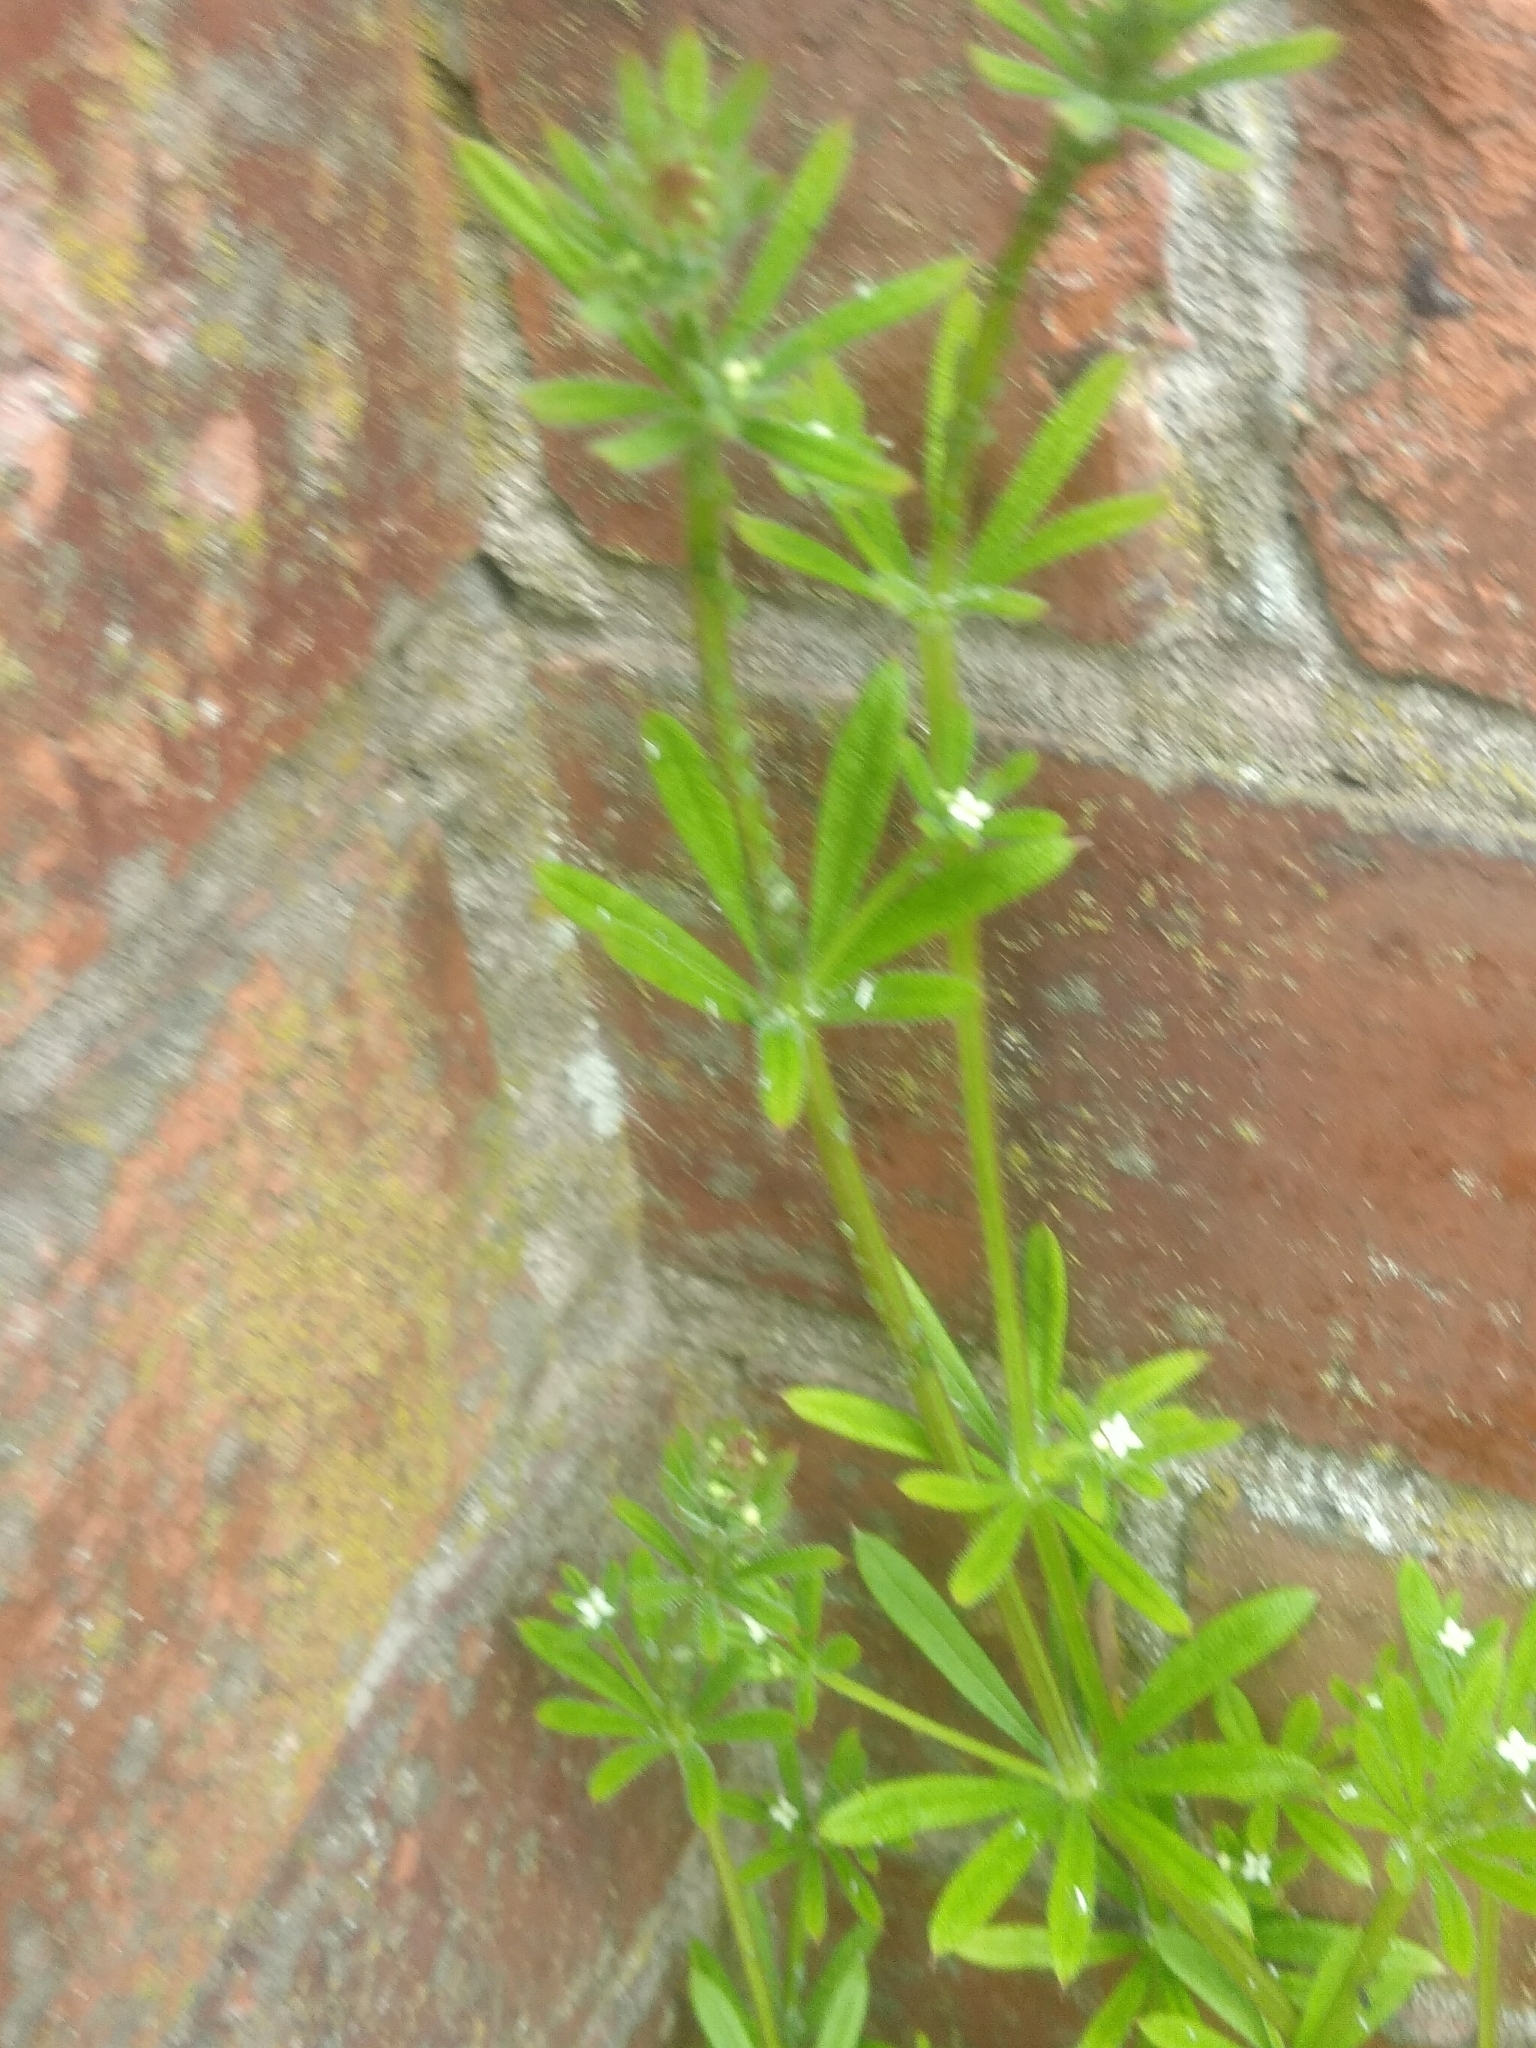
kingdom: Plantae
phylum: Tracheophyta
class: Magnoliopsida
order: Gentianales
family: Rubiaceae
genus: Galium
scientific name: Galium aparine
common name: Cleavers
